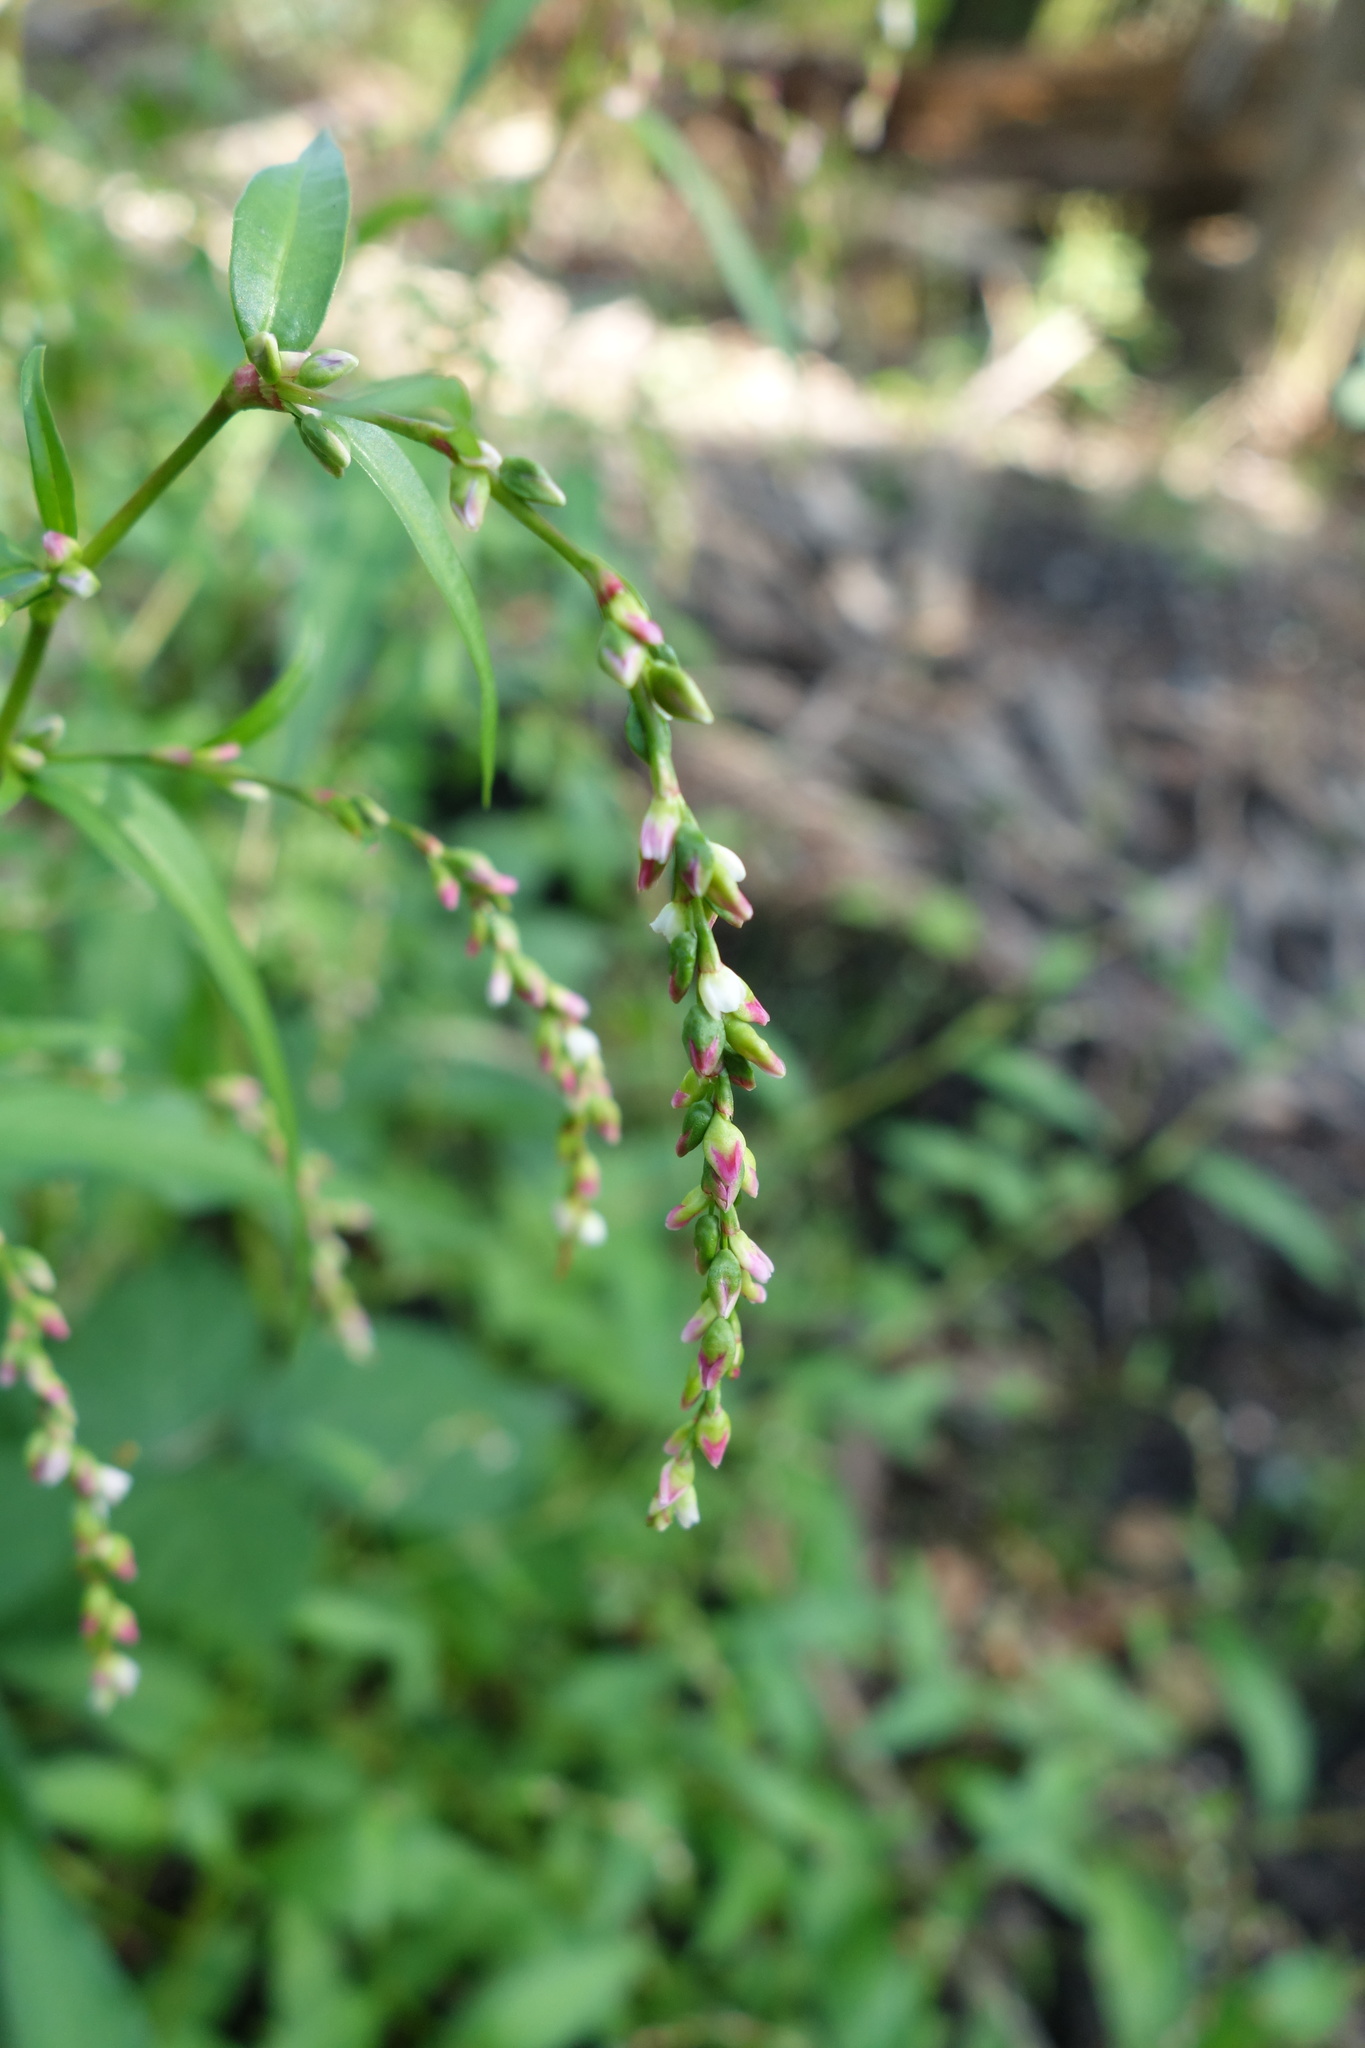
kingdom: Plantae
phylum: Tracheophyta
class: Magnoliopsida
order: Caryophyllales
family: Polygonaceae
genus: Persicaria
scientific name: Persicaria hydropiper
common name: Water-pepper
